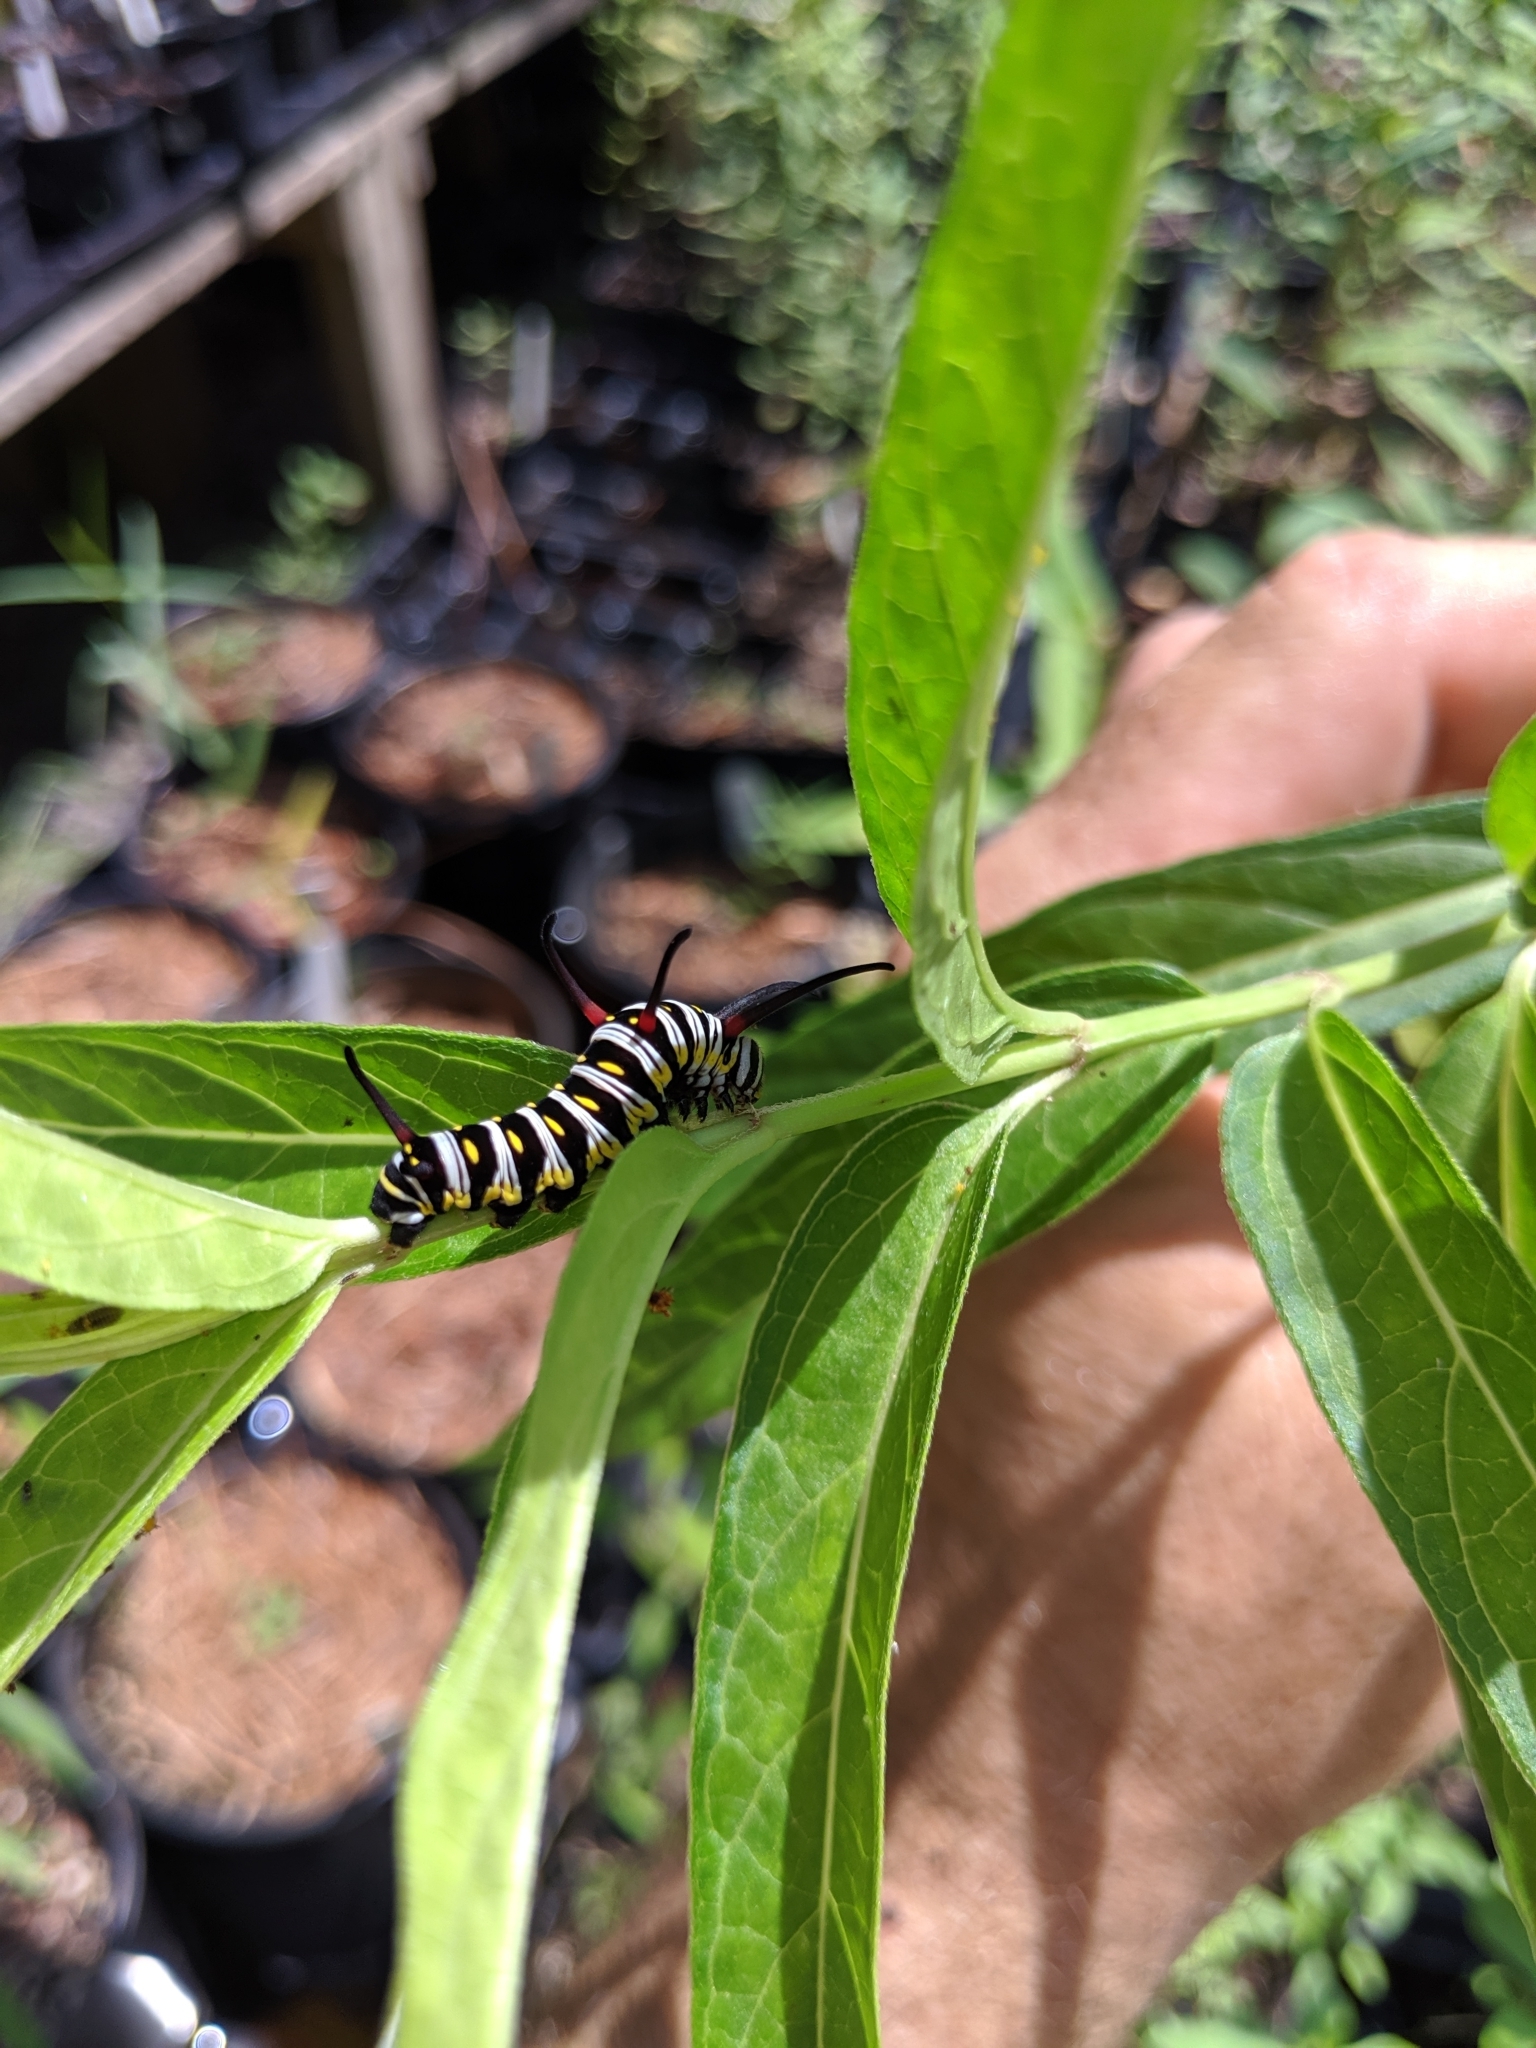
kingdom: Animalia
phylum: Arthropoda
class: Insecta
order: Lepidoptera
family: Nymphalidae
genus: Danaus
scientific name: Danaus gilippus
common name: Queen
